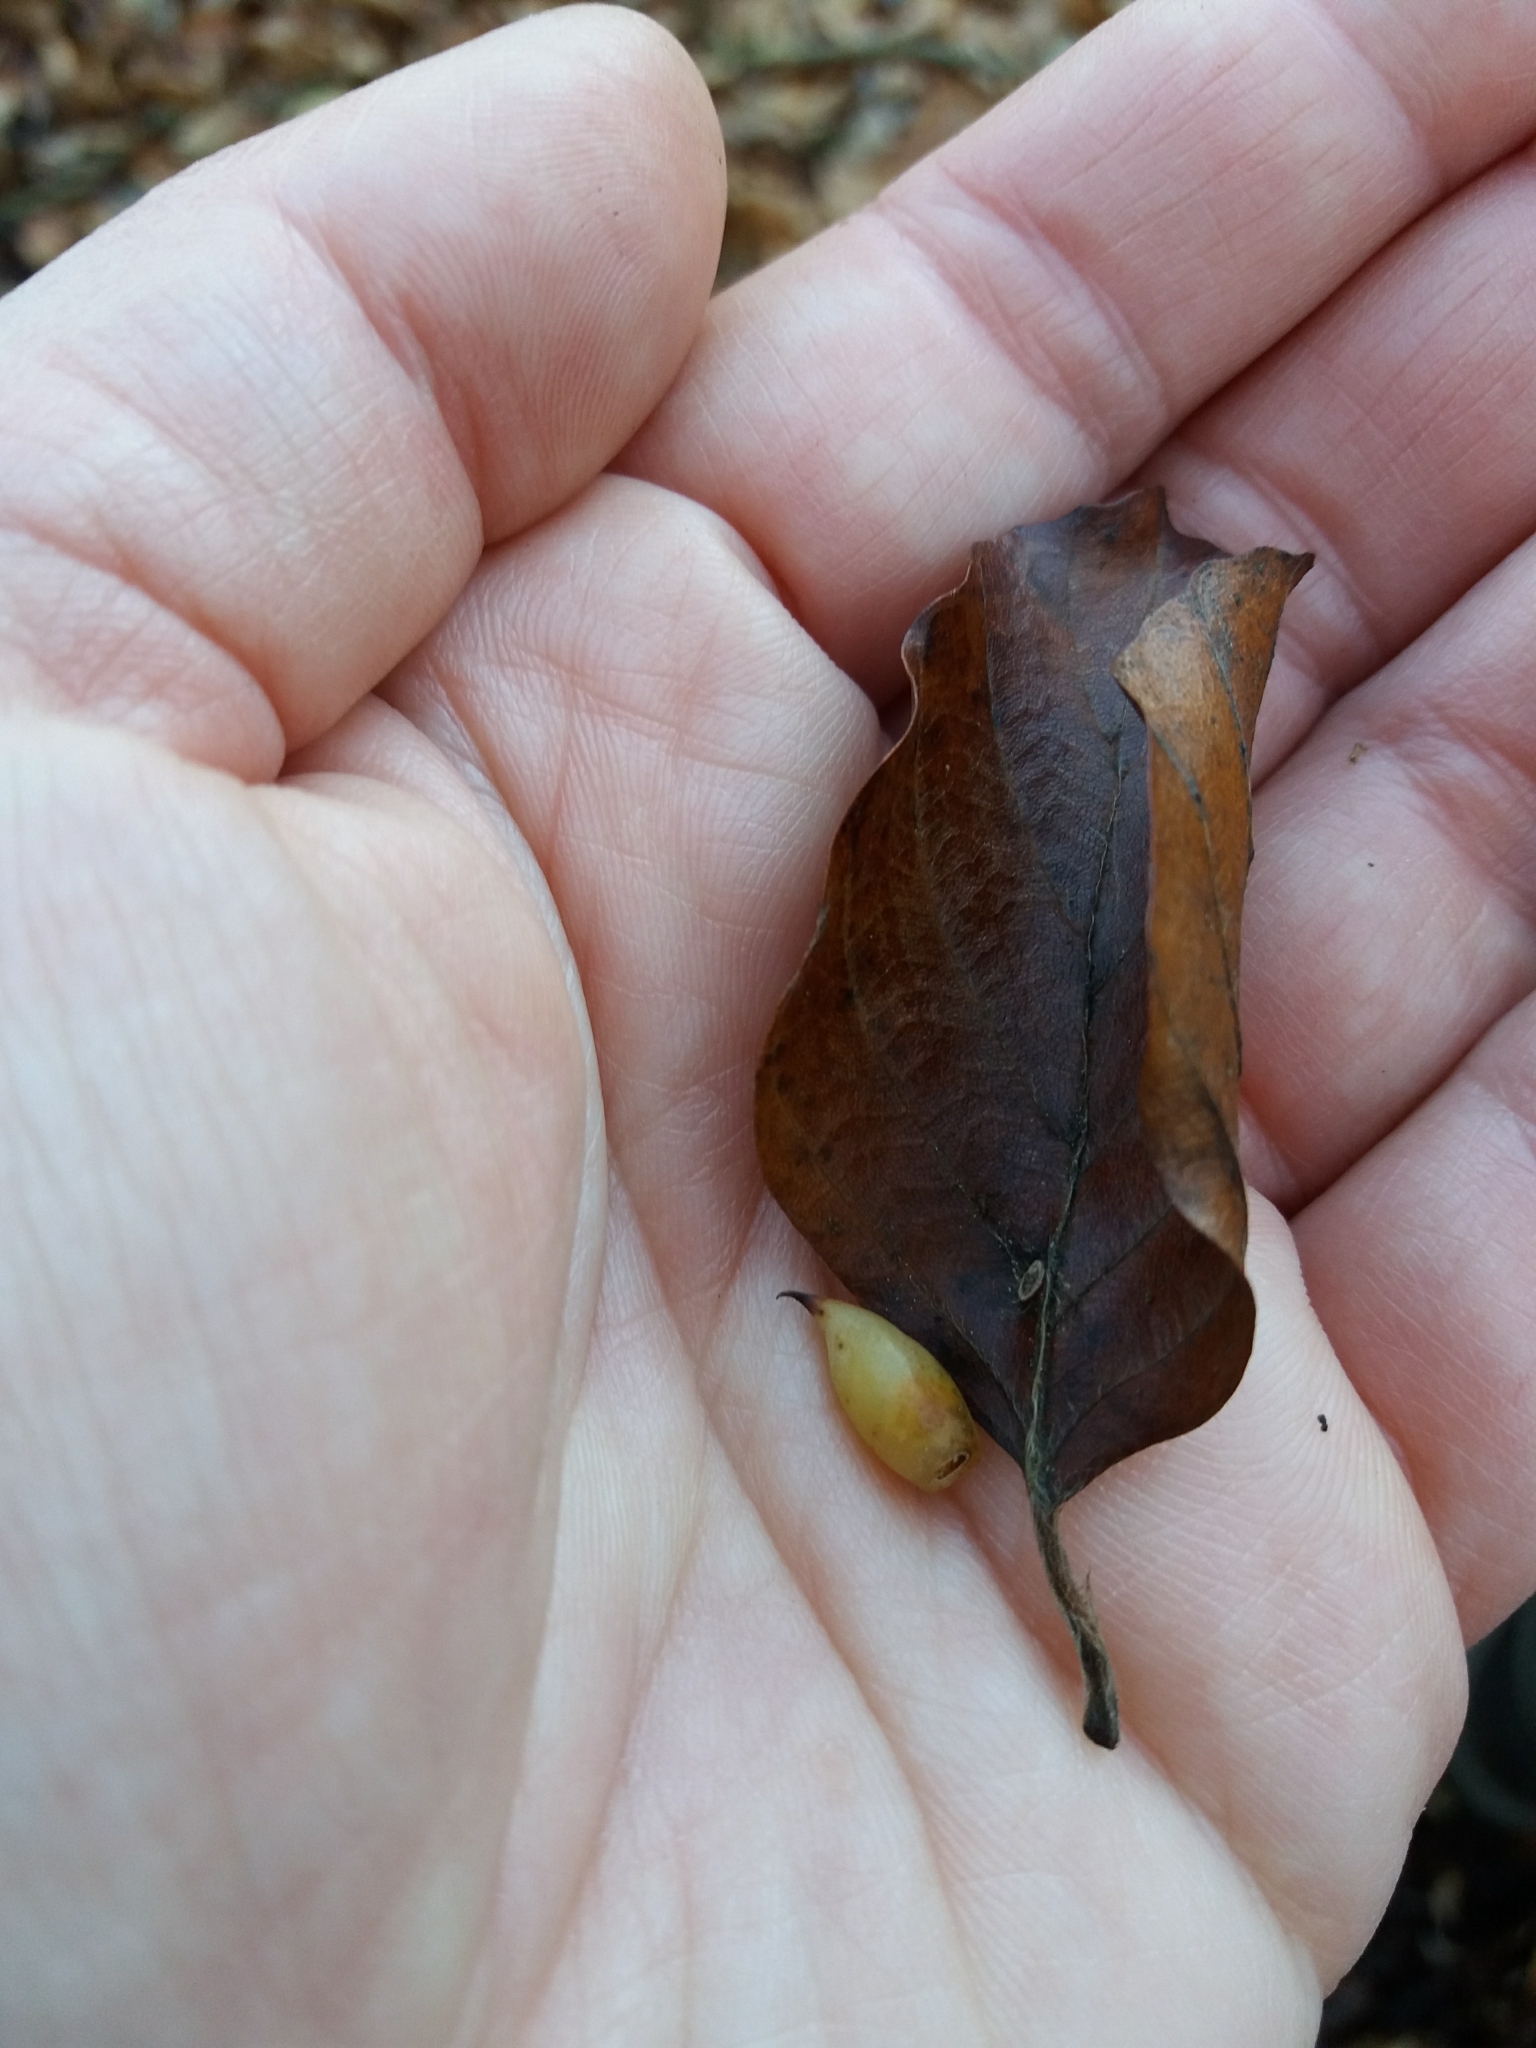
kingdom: Animalia
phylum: Arthropoda
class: Insecta
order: Diptera
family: Cecidomyiidae
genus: Mikiola
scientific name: Mikiola fagi
